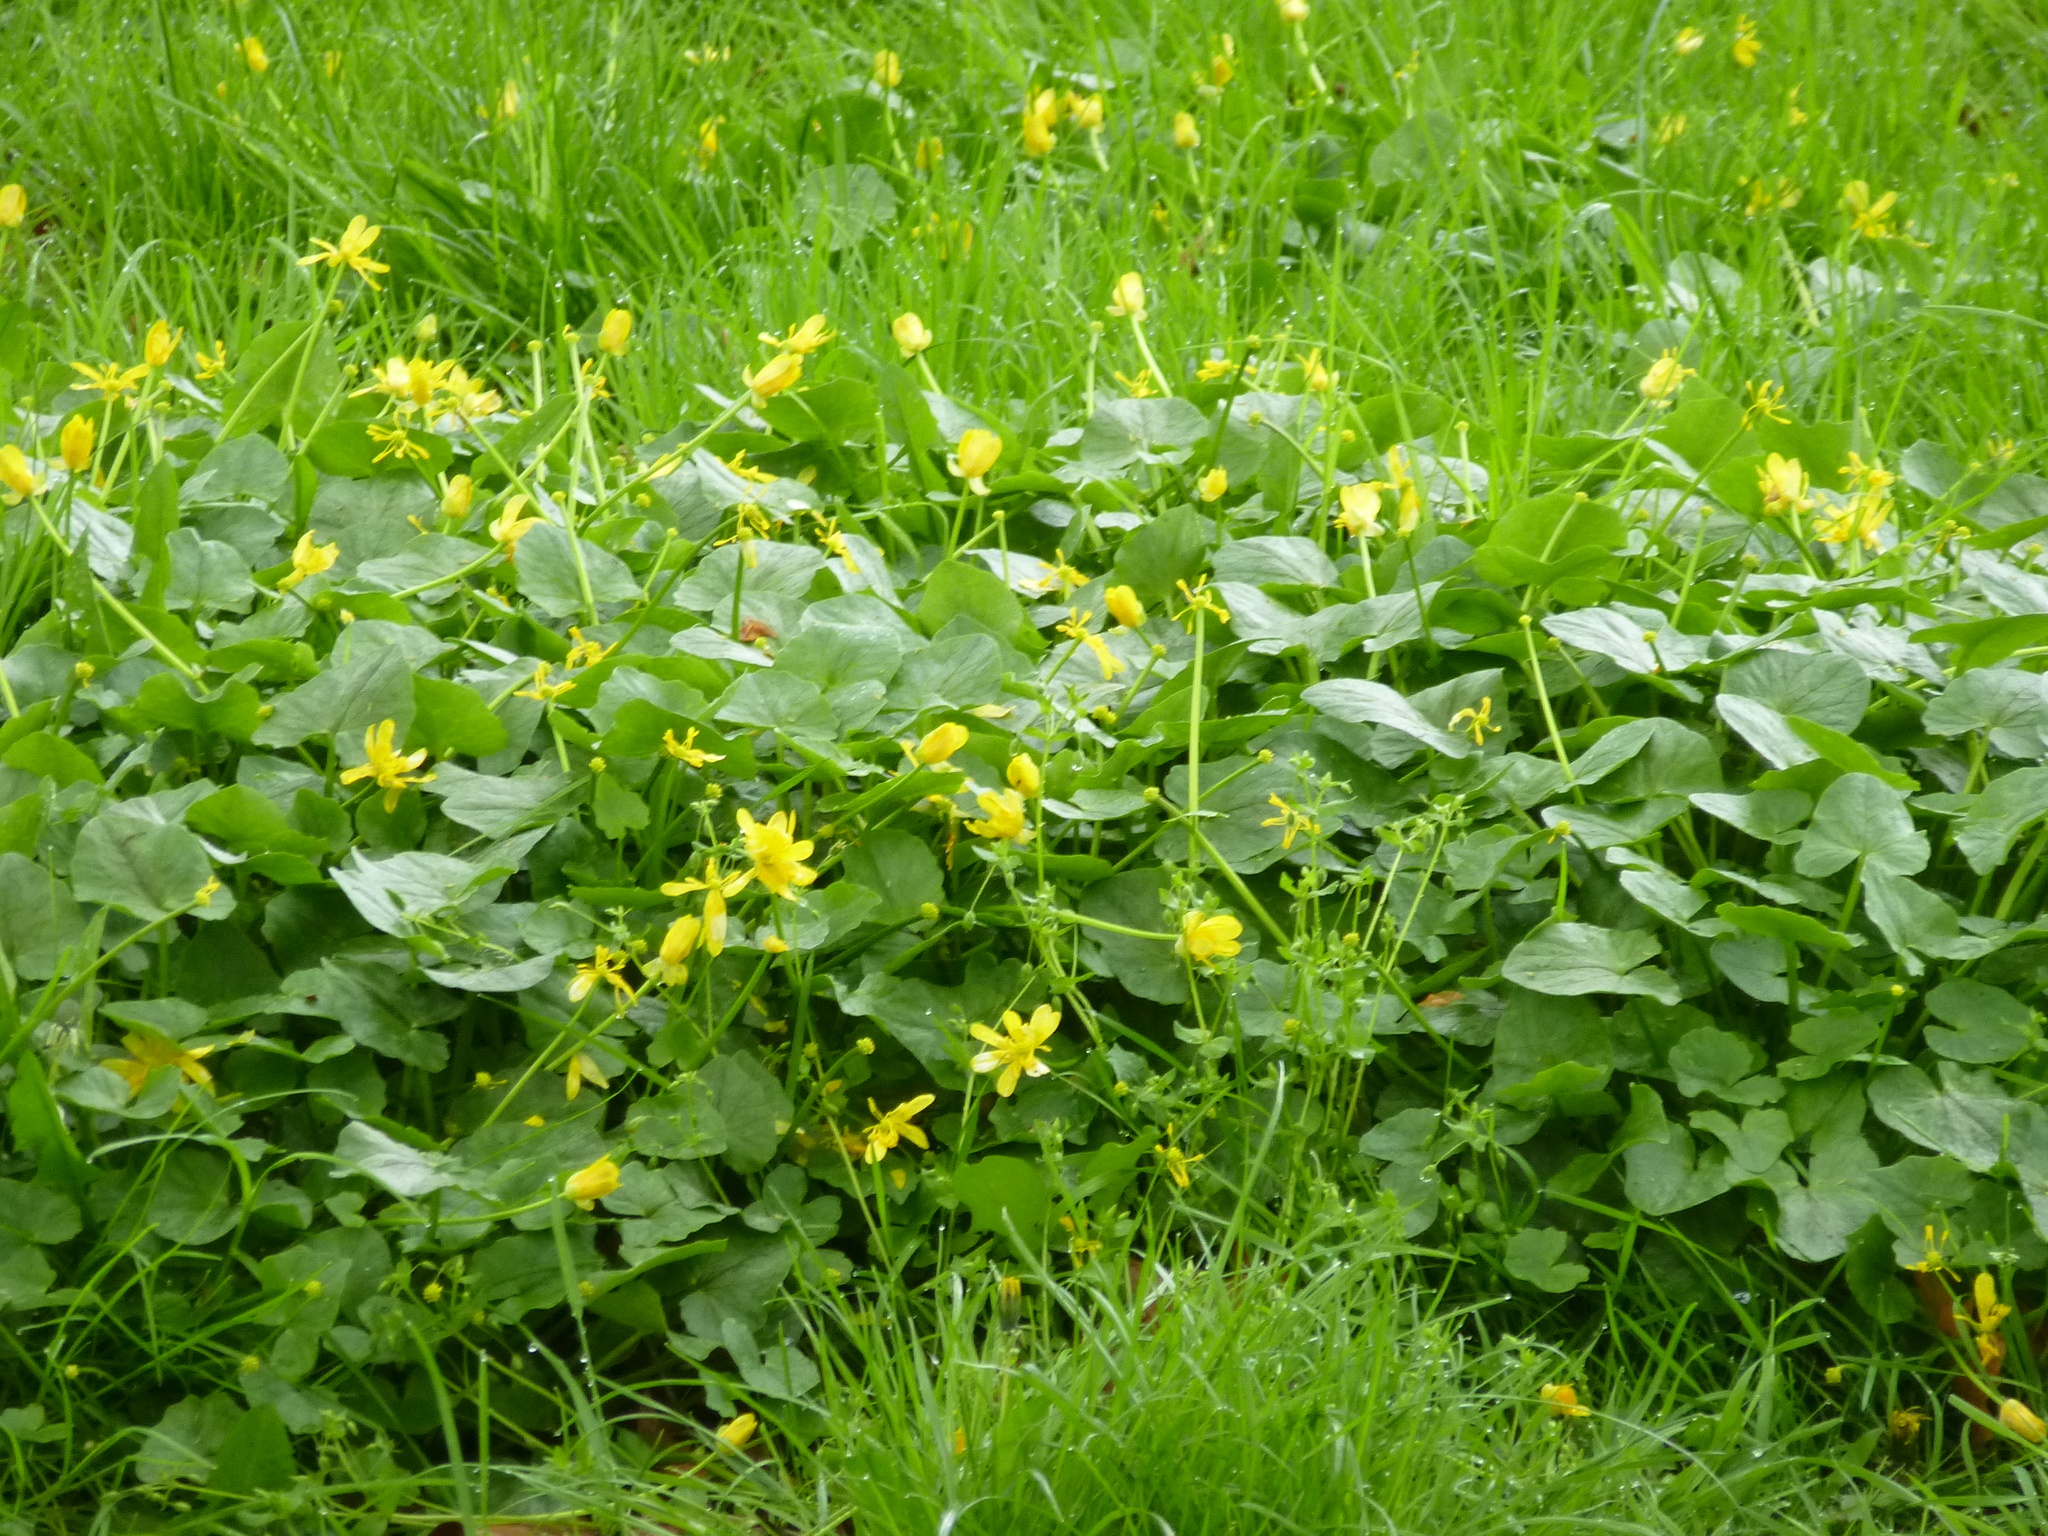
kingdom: Plantae
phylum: Tracheophyta
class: Magnoliopsida
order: Ranunculales
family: Ranunculaceae
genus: Ficaria
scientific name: Ficaria verna
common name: Lesser celandine
